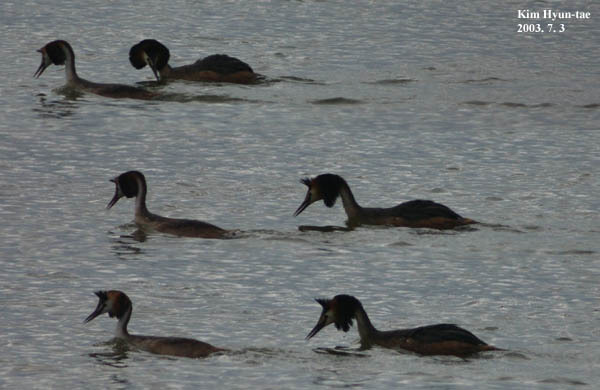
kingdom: Animalia
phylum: Chordata
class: Aves
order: Podicipediformes
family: Podicipedidae
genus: Podiceps
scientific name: Podiceps cristatus
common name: Great crested grebe
